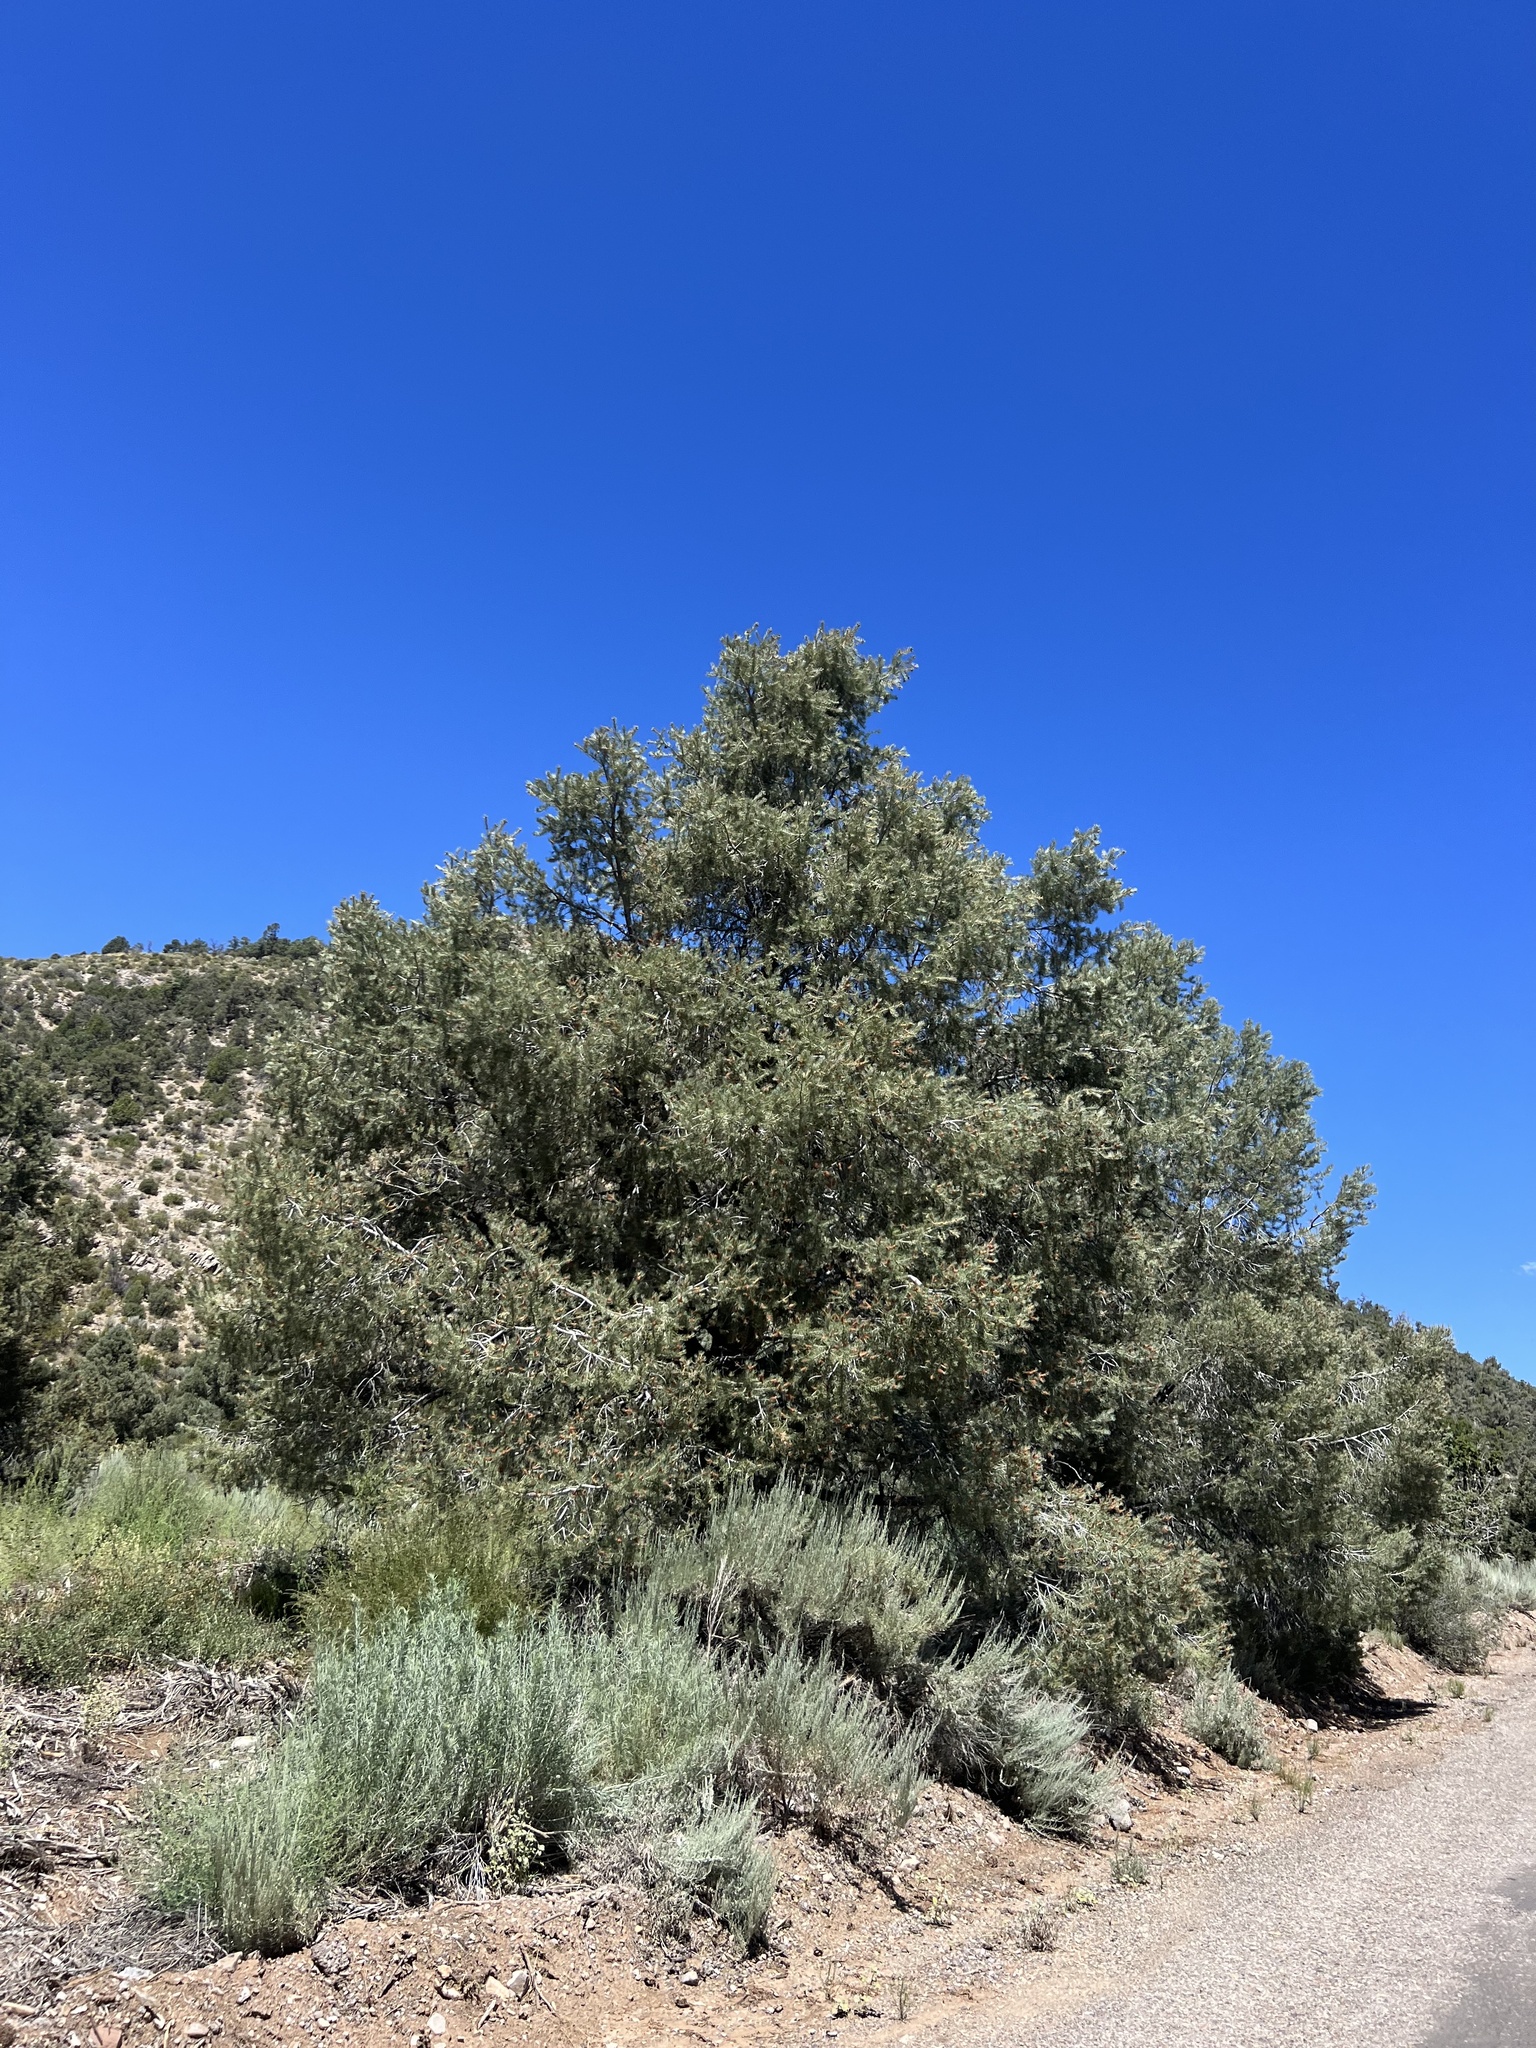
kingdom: Plantae
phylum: Tracheophyta
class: Pinopsida
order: Pinales
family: Pinaceae
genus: Pinus
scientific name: Pinus monophylla
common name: One-leaved nut pine
